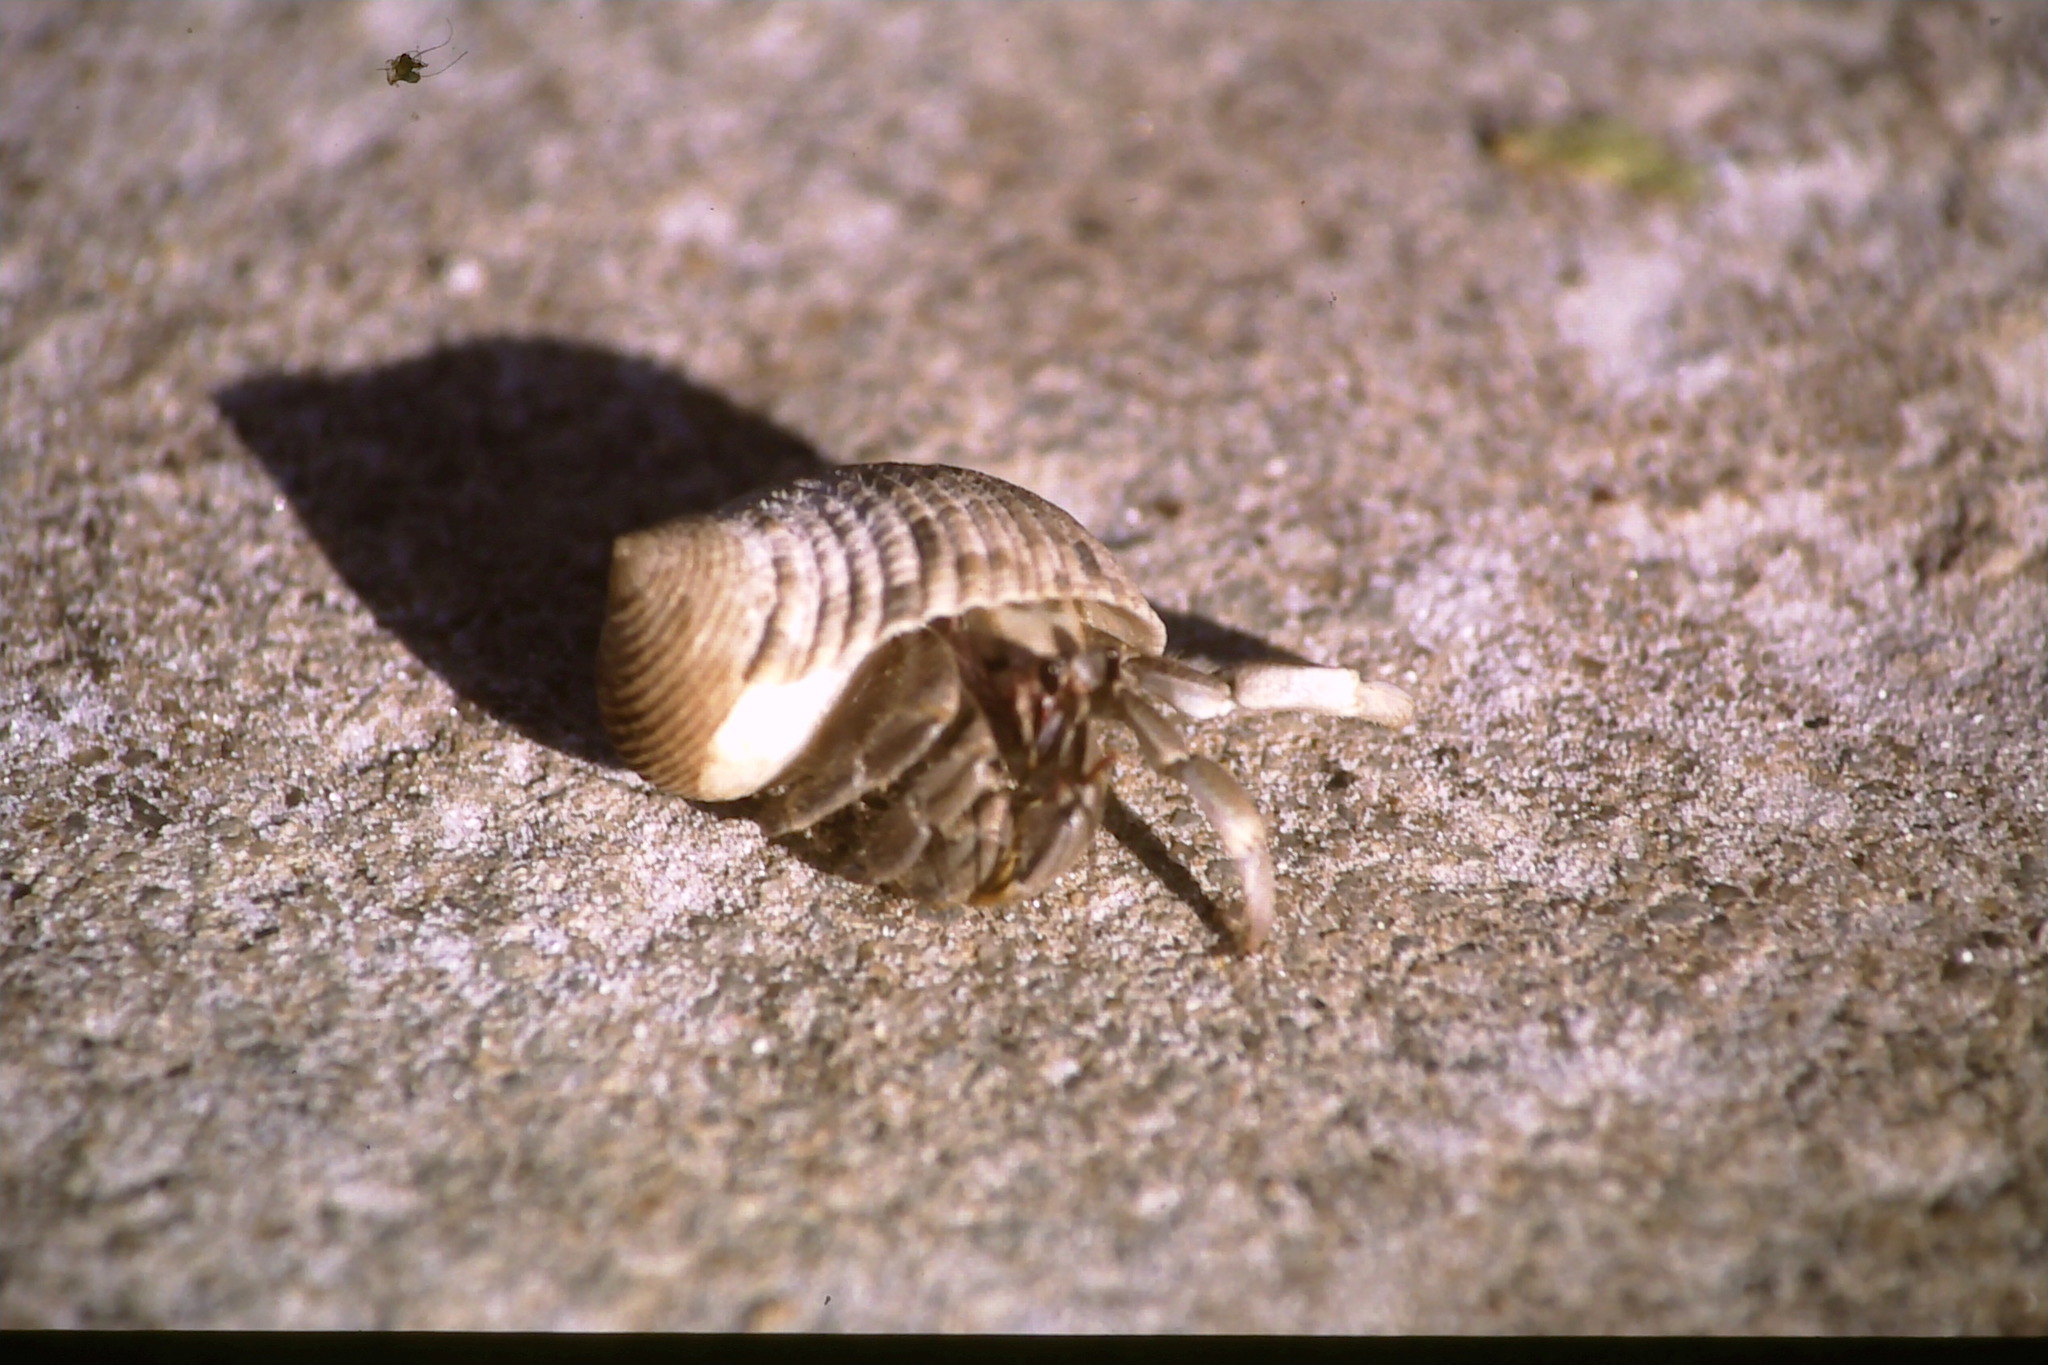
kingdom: Animalia
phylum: Arthropoda
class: Malacostraca
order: Decapoda
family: Coenobitidae
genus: Coenobita
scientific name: Coenobita rugosus
